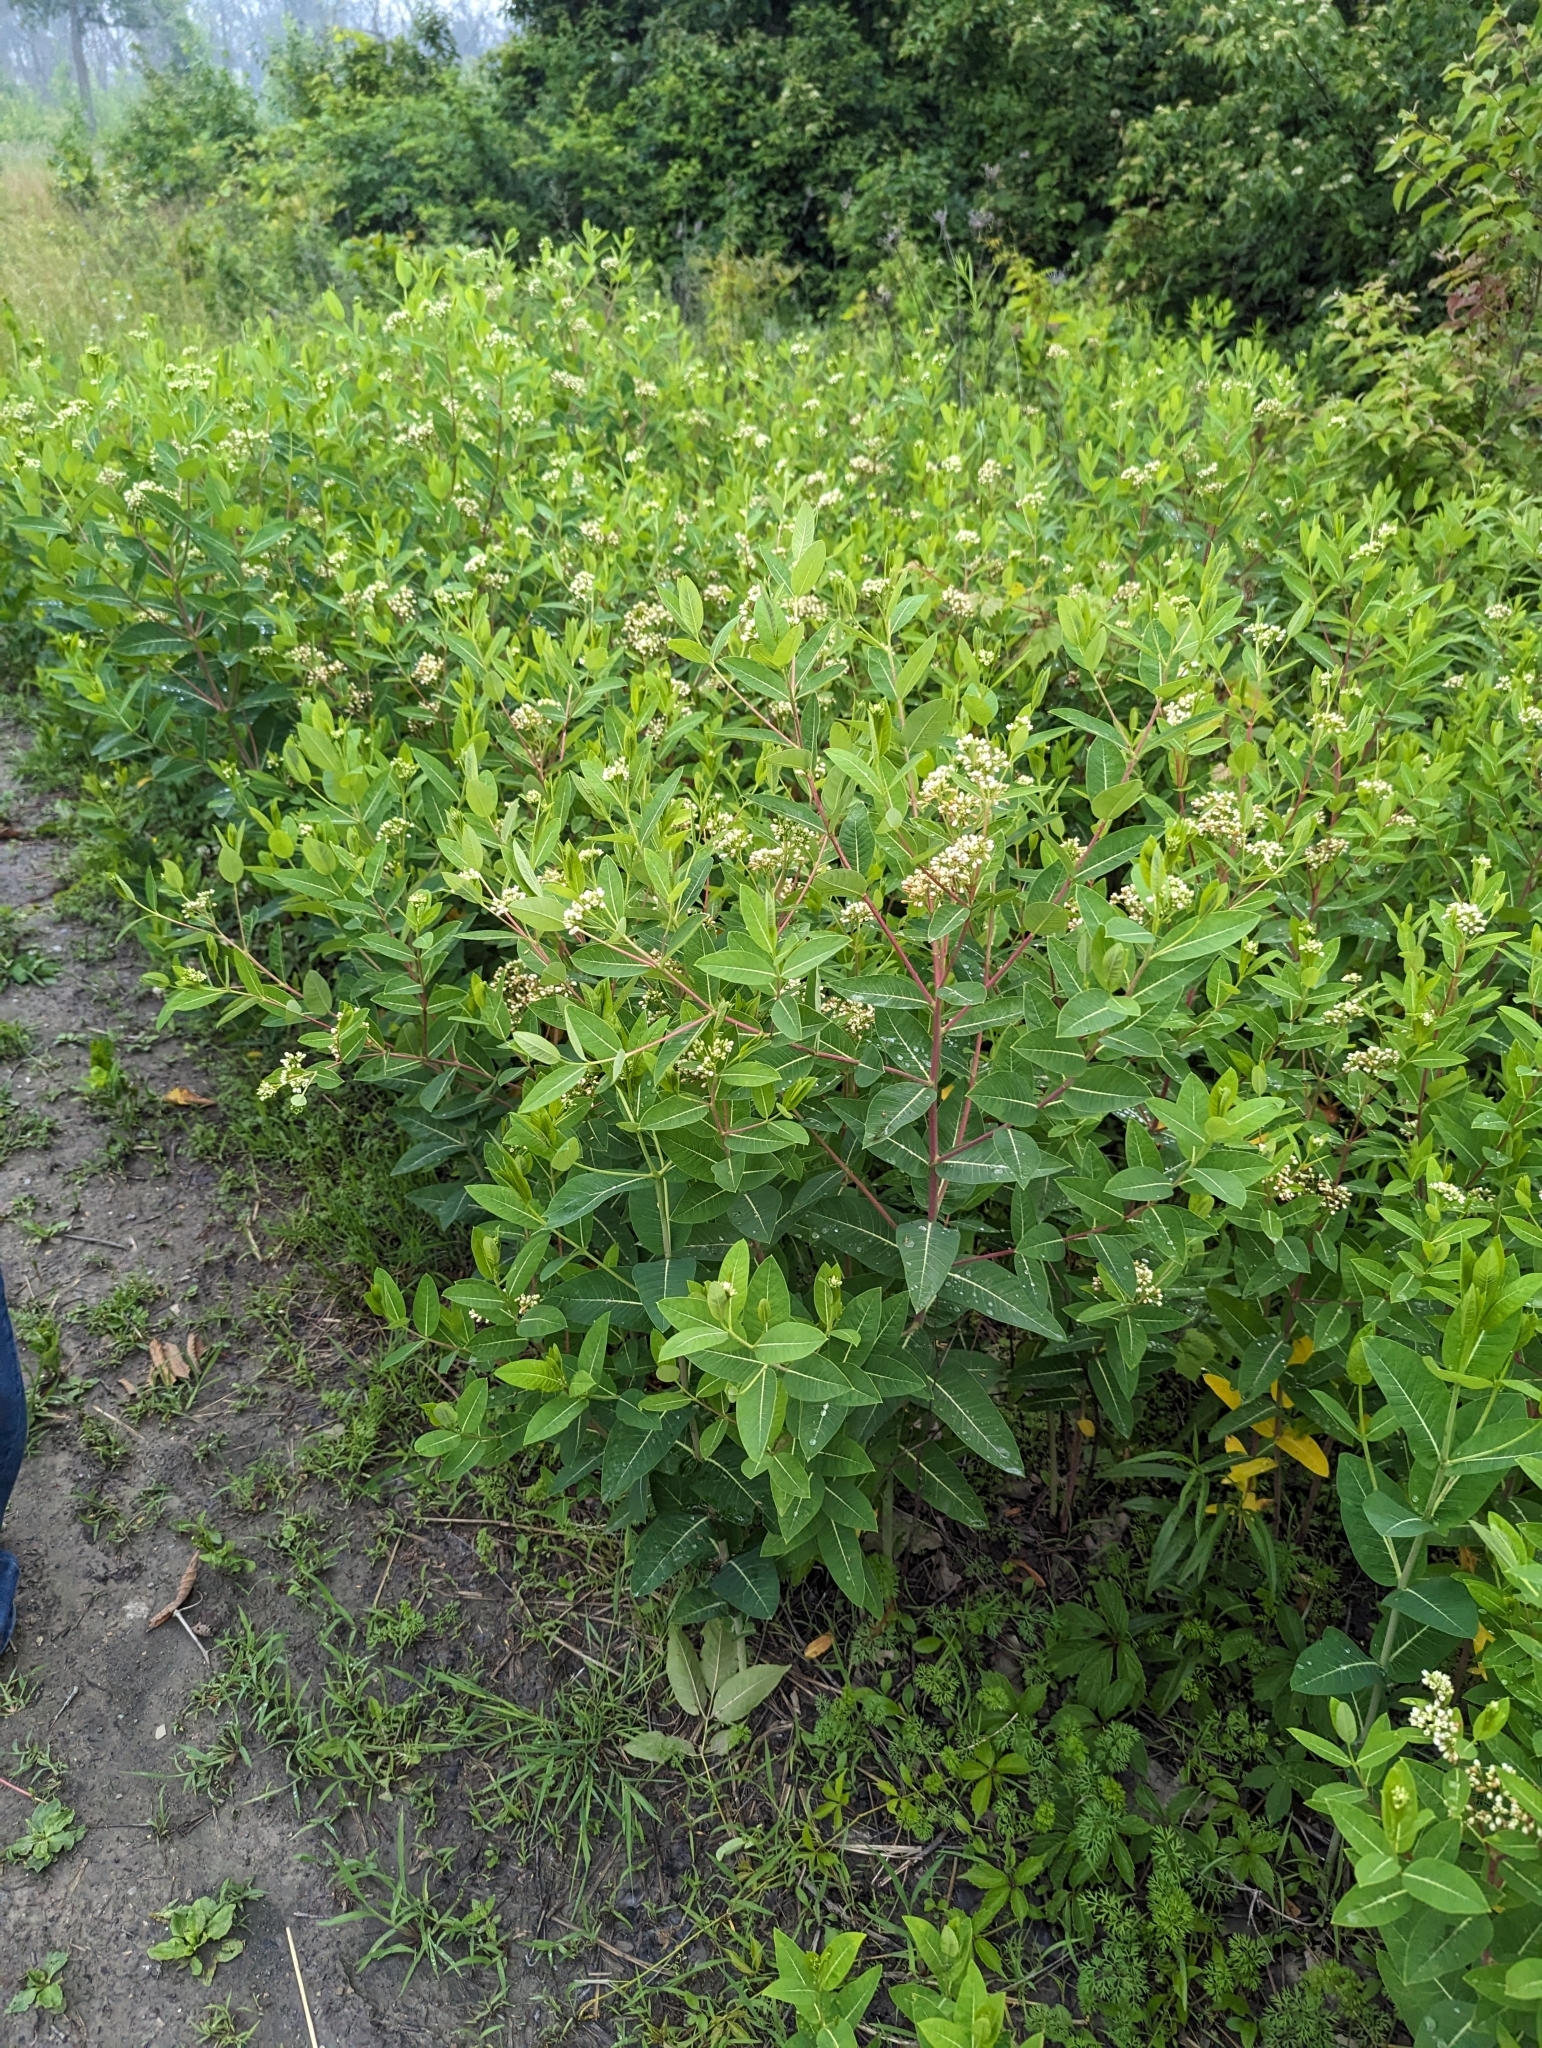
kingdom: Plantae
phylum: Tracheophyta
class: Magnoliopsida
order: Gentianales
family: Apocynaceae
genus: Apocynum
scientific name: Apocynum cannabinum
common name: Hemp dogbane
